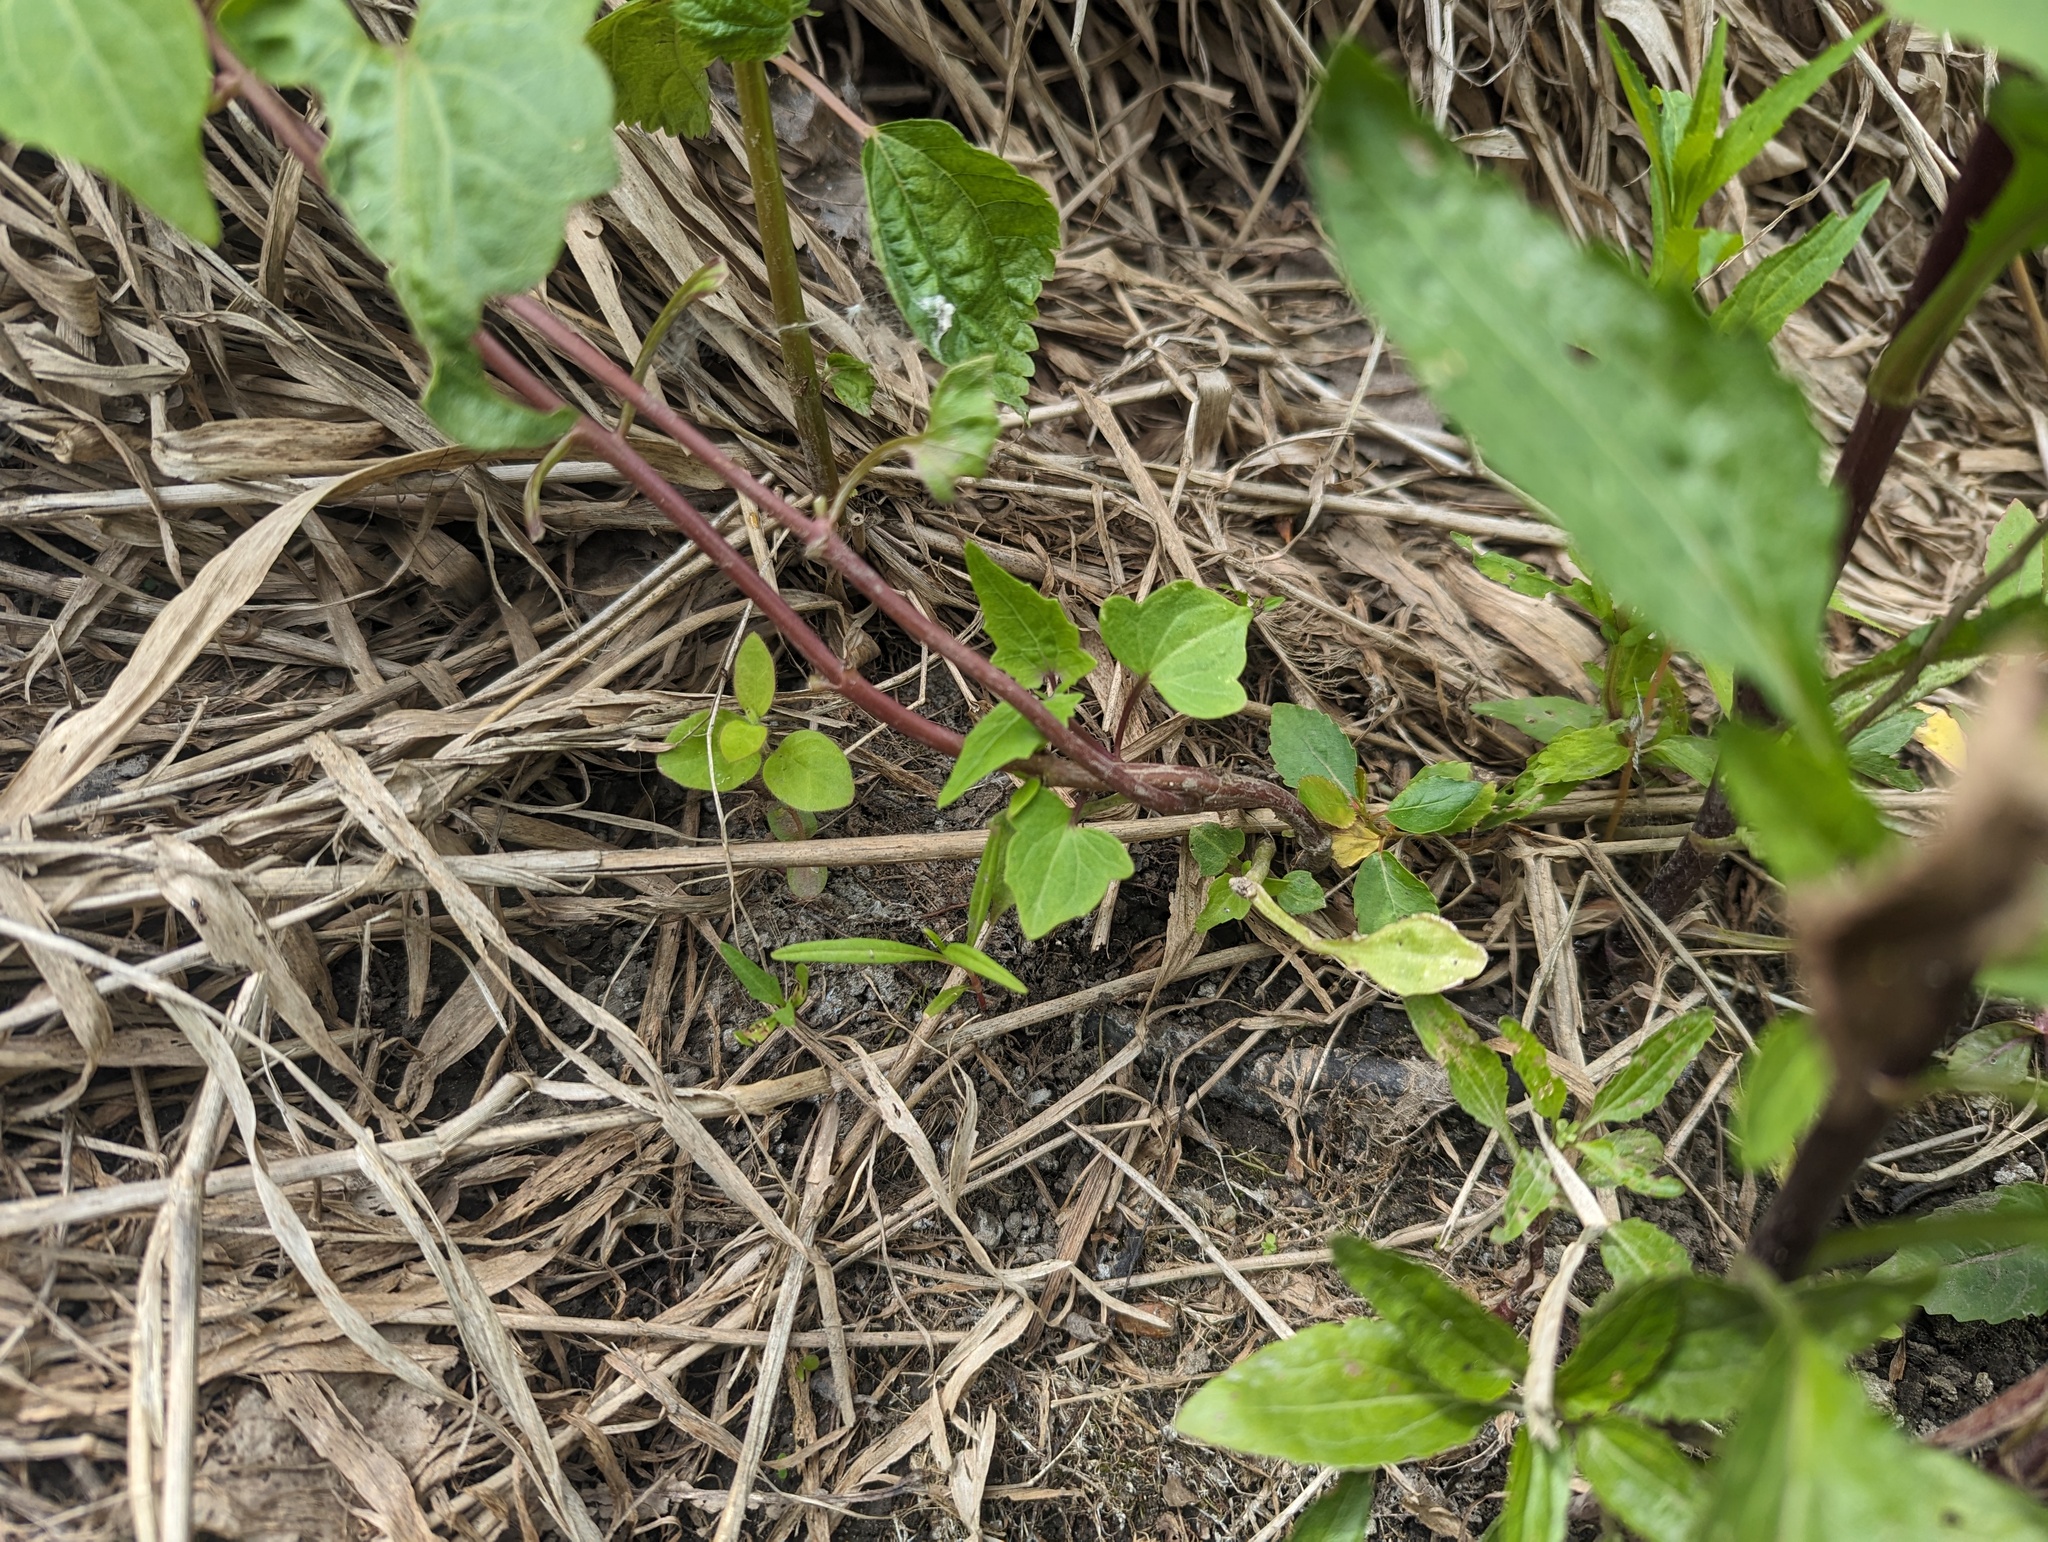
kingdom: Plantae
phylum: Tracheophyta
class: Magnoliopsida
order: Asterales
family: Asteraceae
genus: Mikania
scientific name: Mikania scandens
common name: Climbing hempvine
